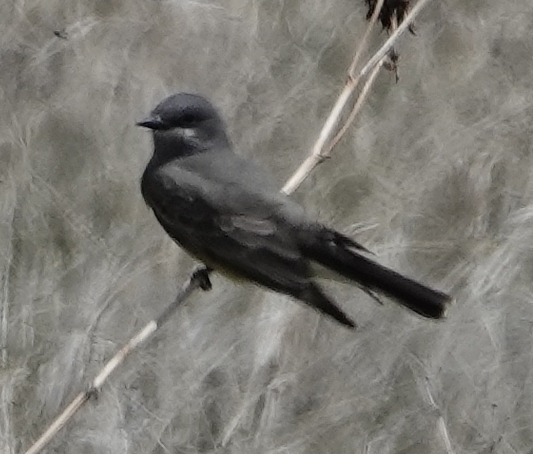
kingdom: Animalia
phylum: Chordata
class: Aves
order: Passeriformes
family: Tyrannidae
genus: Tyrannus
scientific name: Tyrannus vociferans
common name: Cassin's kingbird
